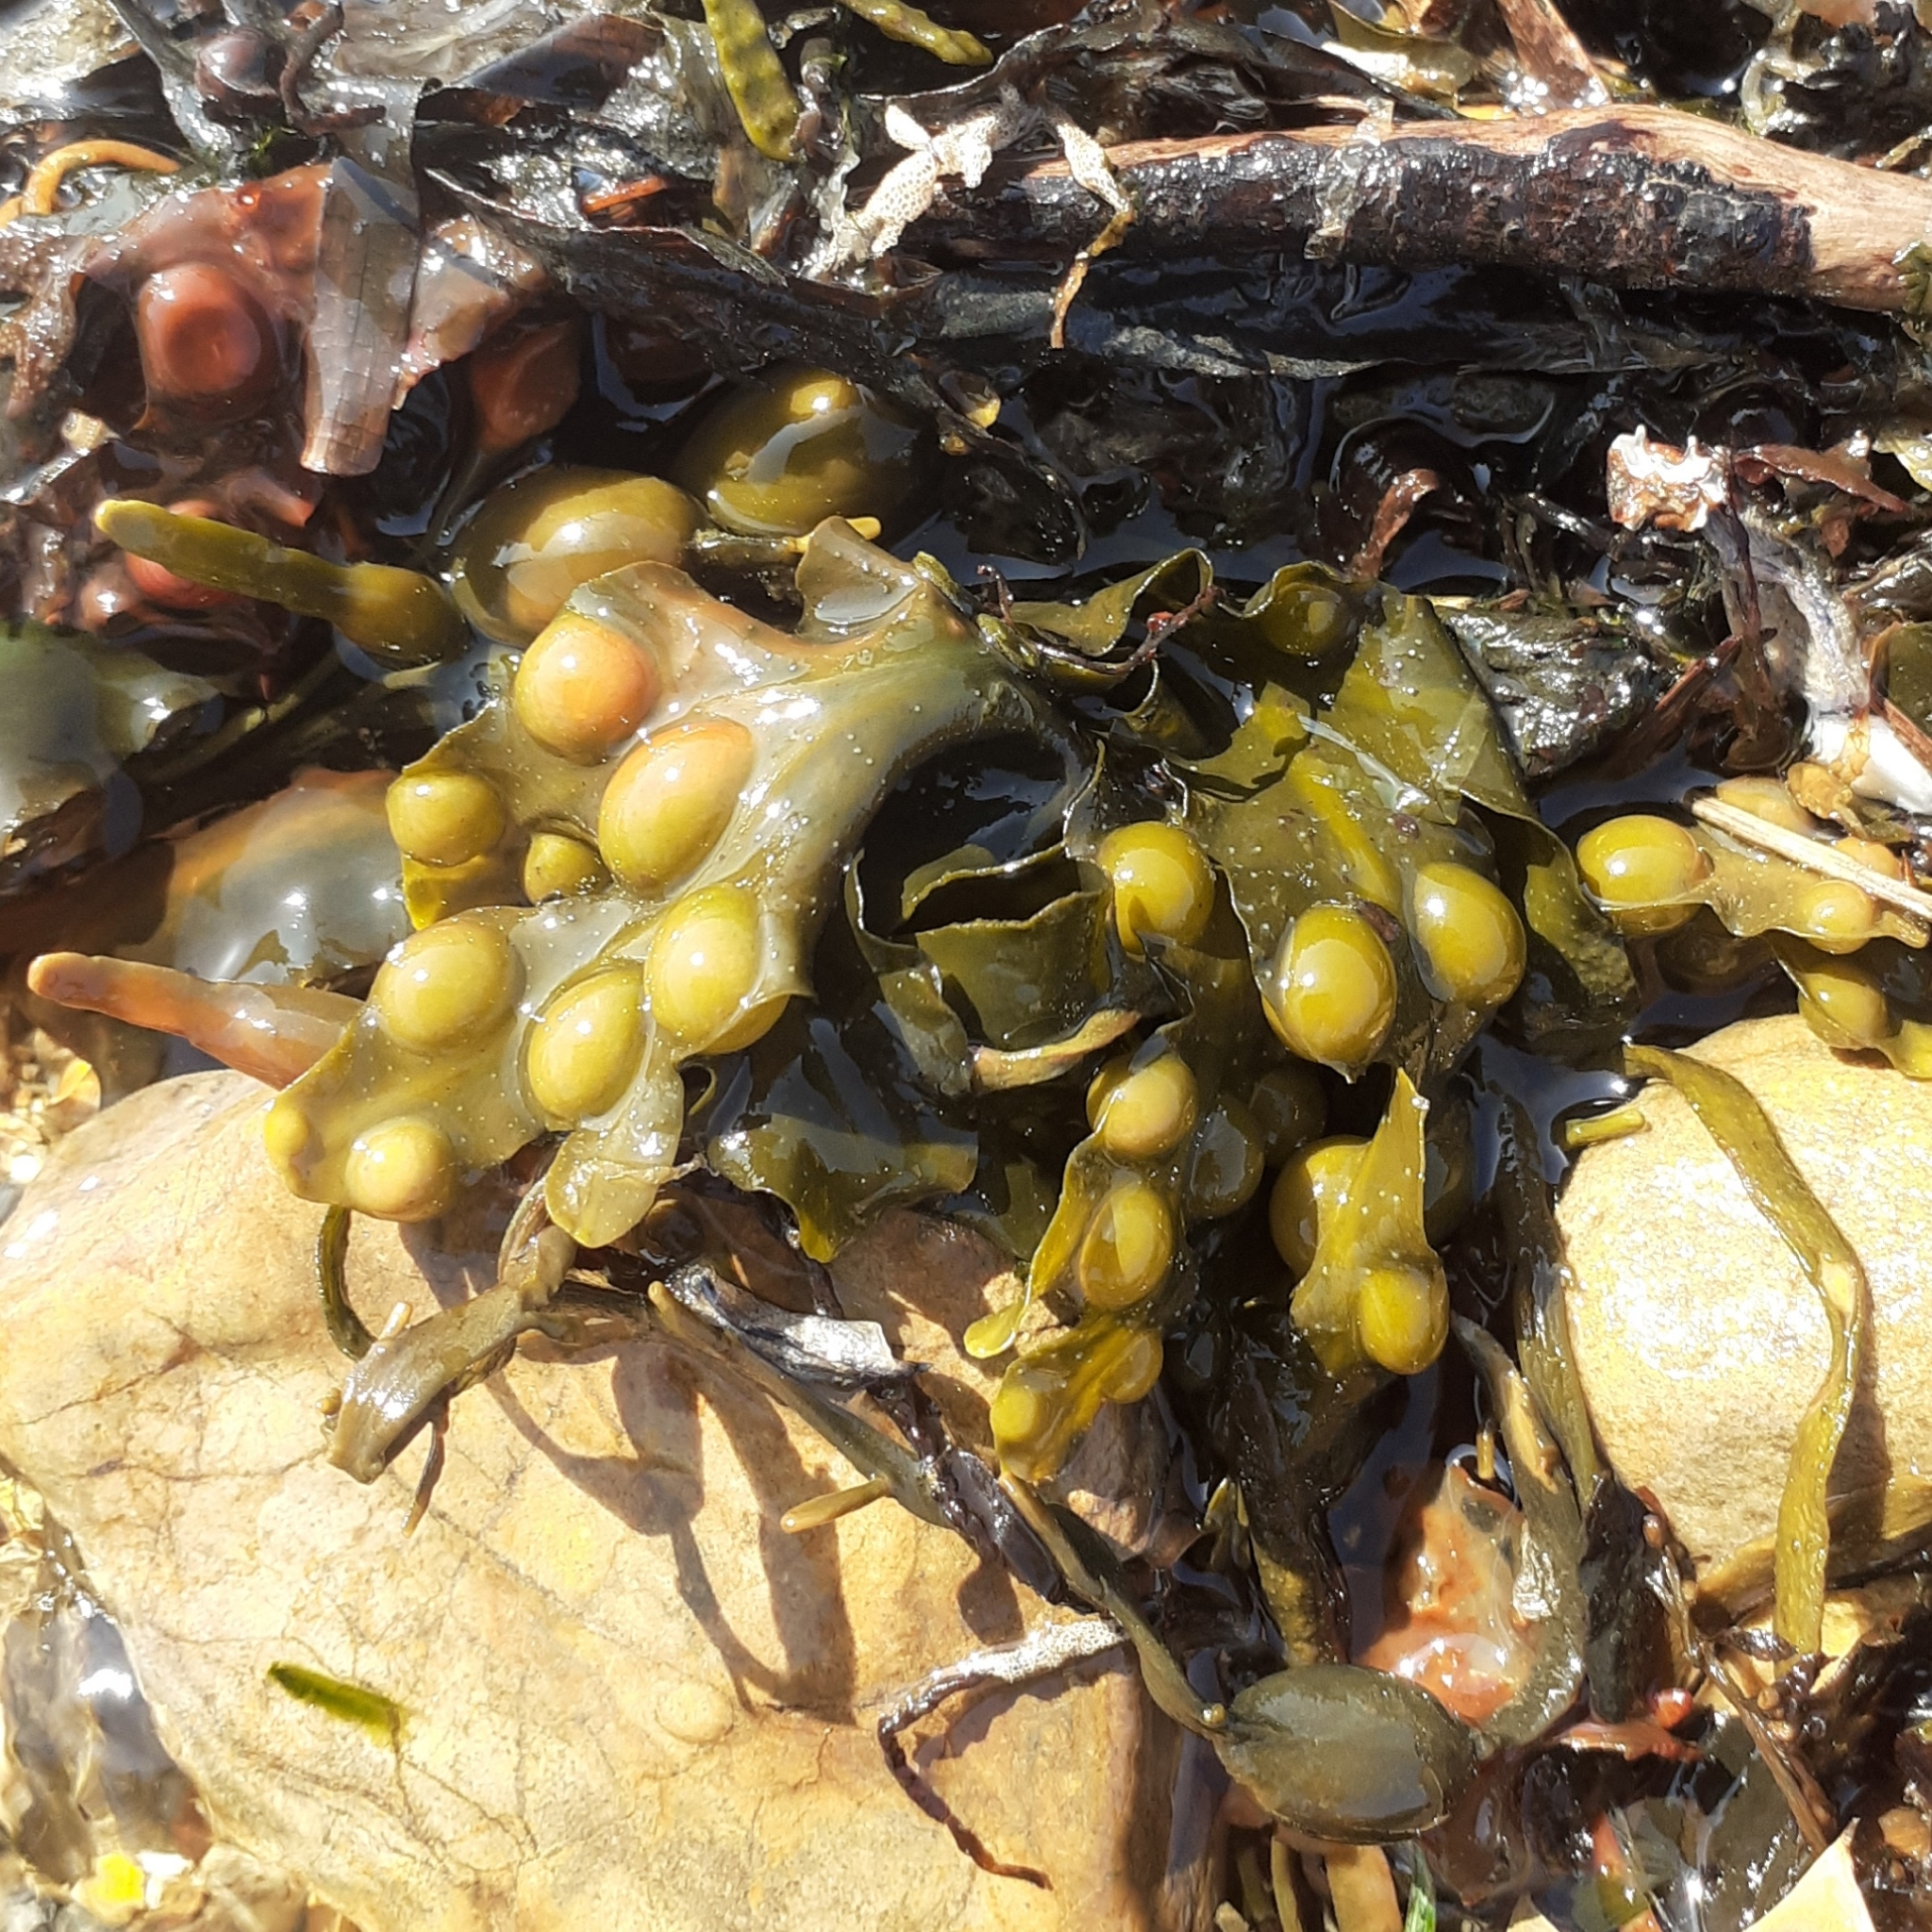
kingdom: Chromista
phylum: Ochrophyta
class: Phaeophyceae
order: Fucales
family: Fucaceae
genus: Fucus
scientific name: Fucus vesiculosus
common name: Bladder wrack
